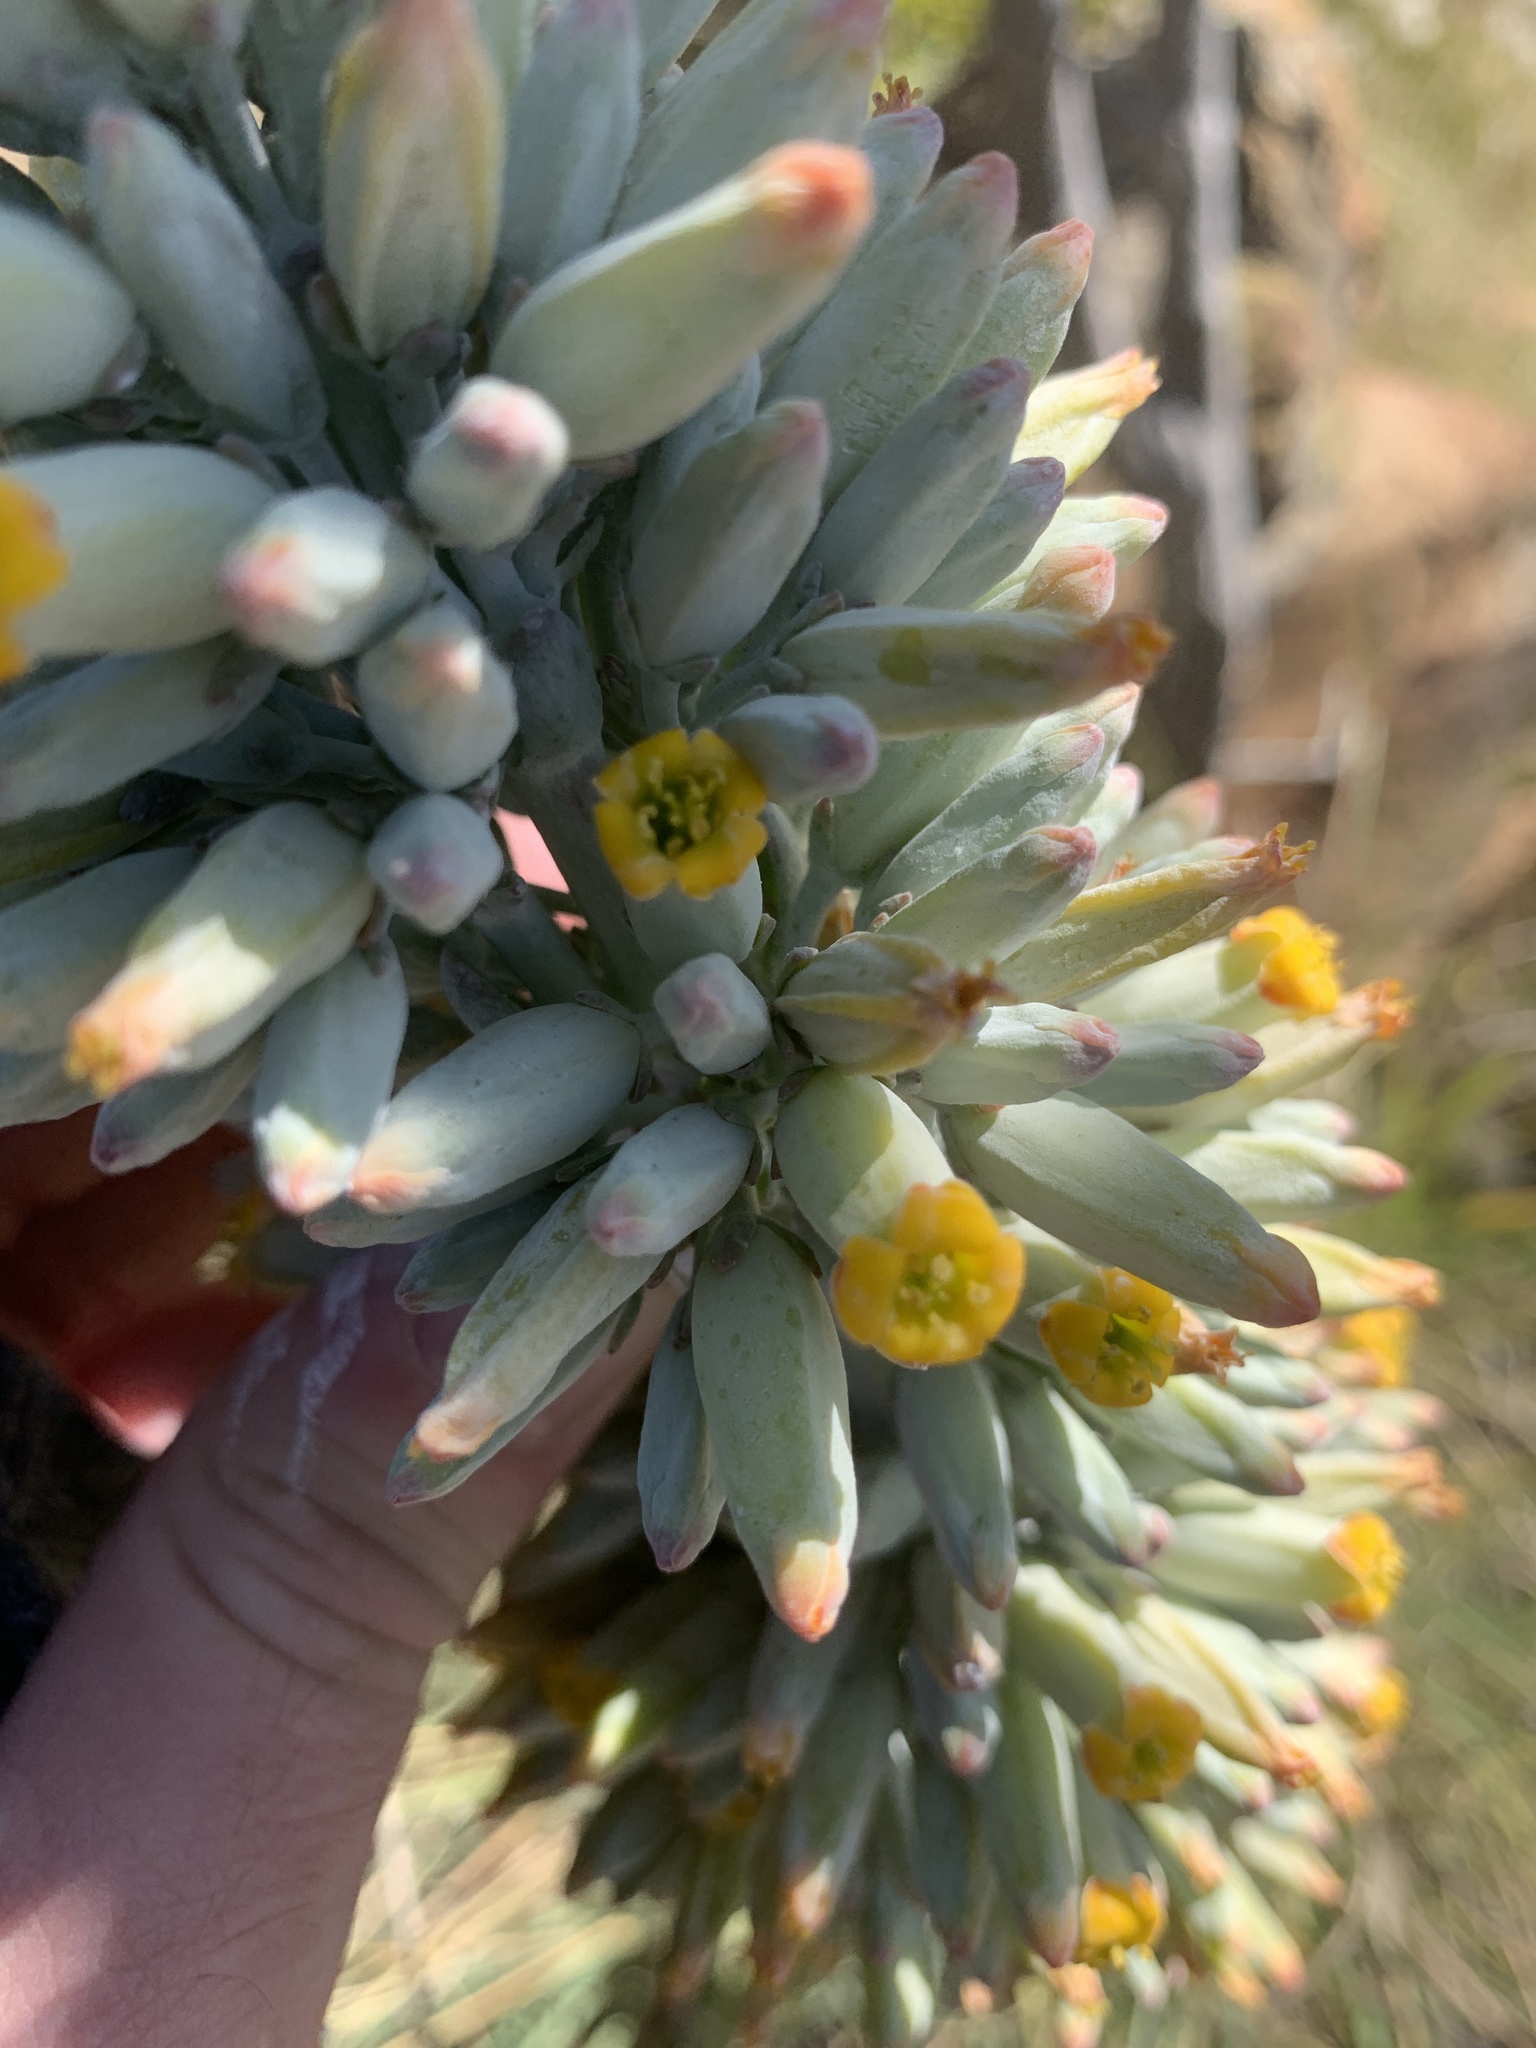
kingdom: Plantae
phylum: Tracheophyta
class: Magnoliopsida
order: Saxifragales
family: Crassulaceae
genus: Kalanchoe
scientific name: Kalanchoe thyrsiflora
